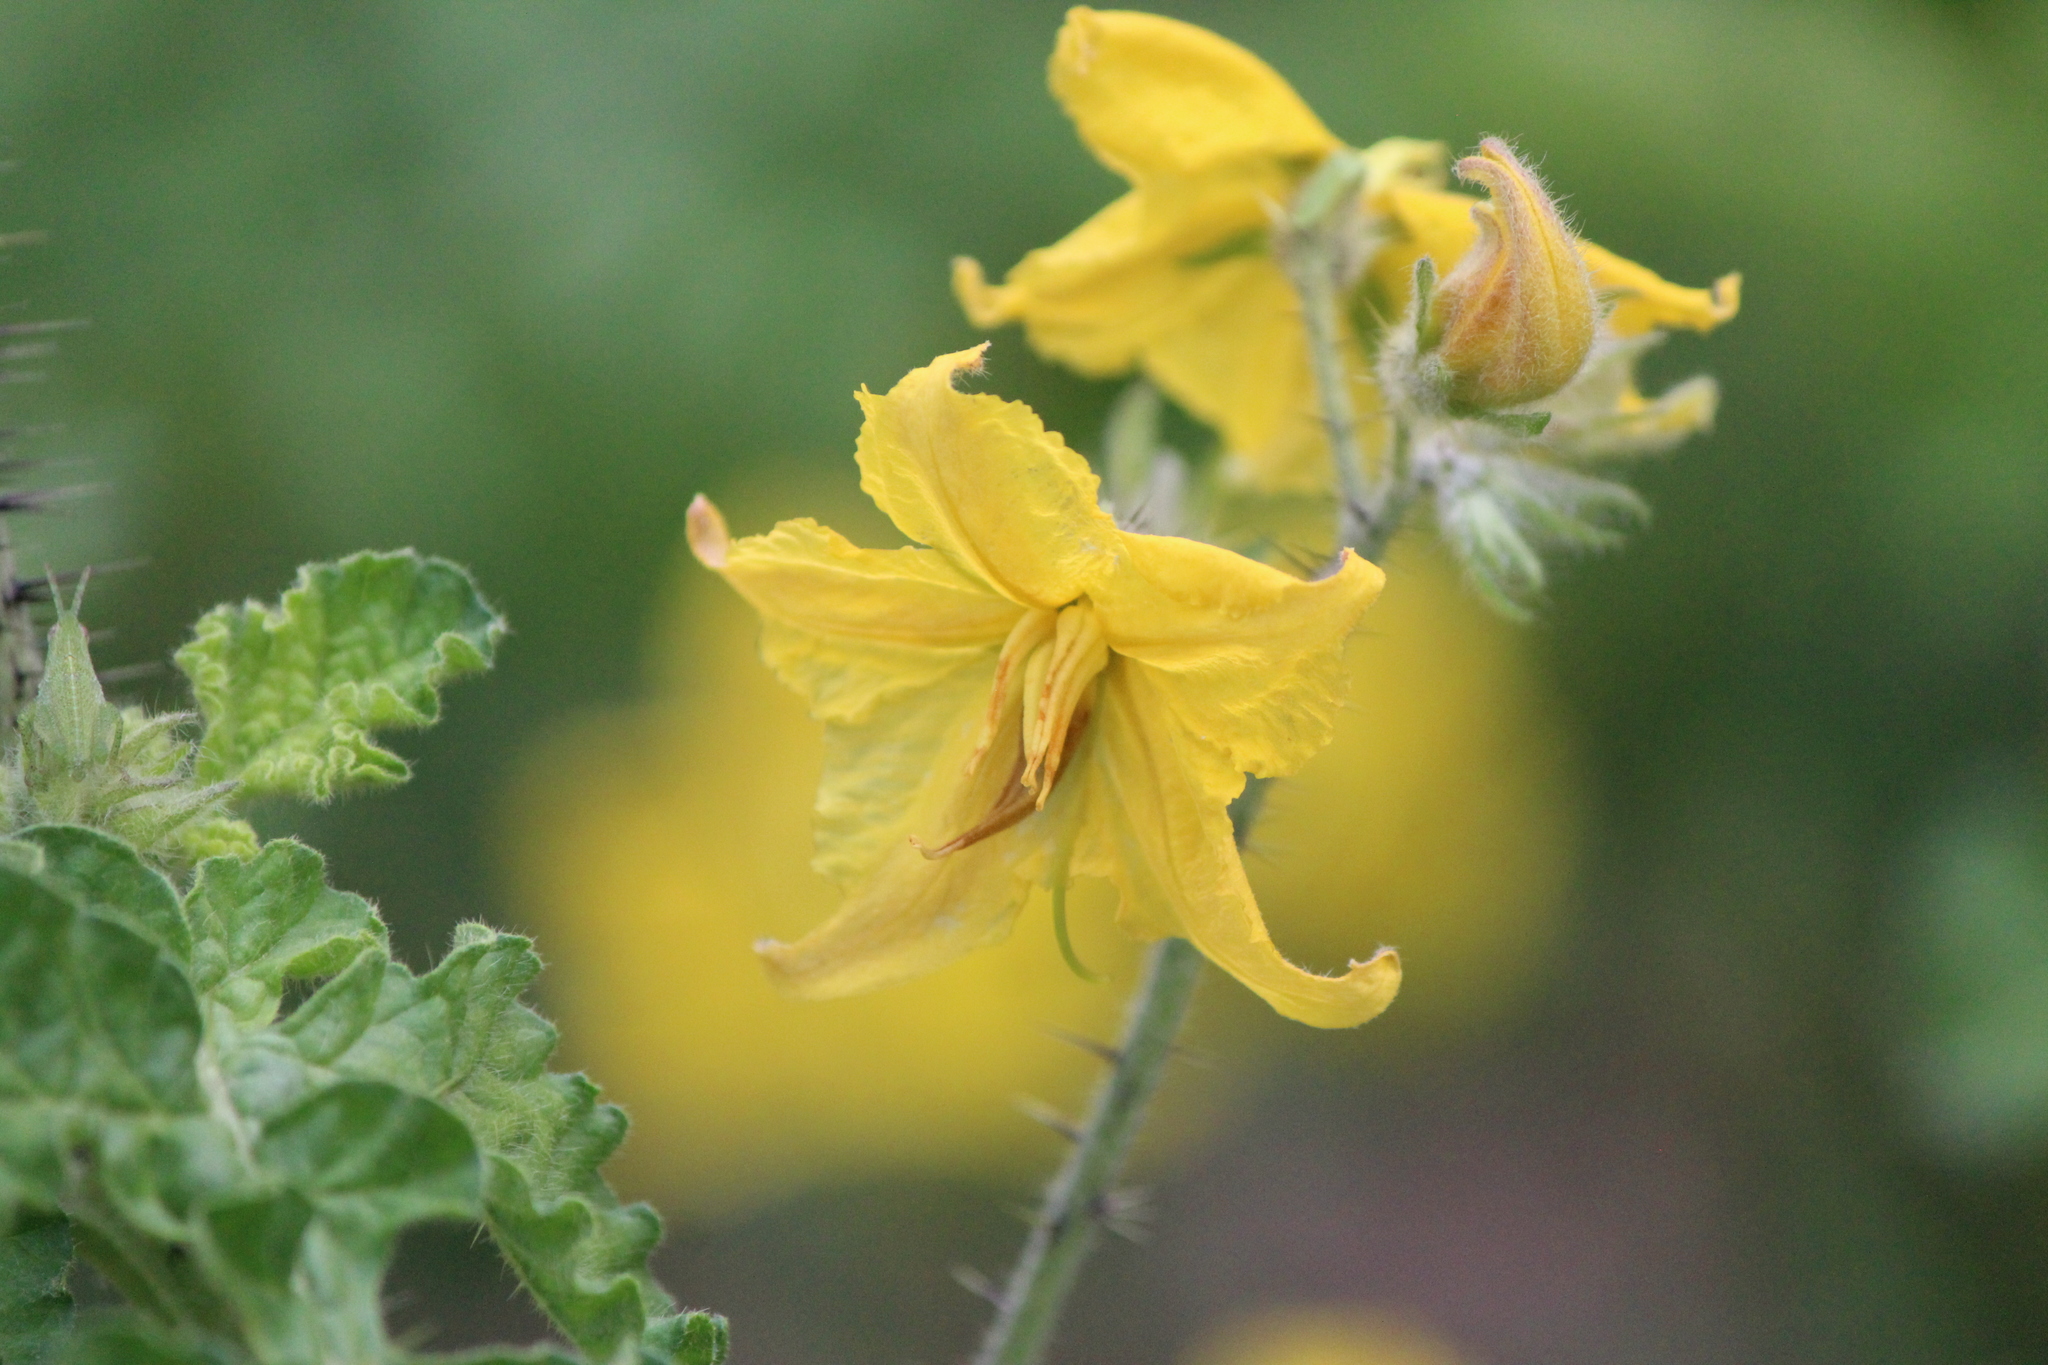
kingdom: Plantae
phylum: Tracheophyta
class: Magnoliopsida
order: Solanales
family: Solanaceae
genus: Solanum
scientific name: Solanum angustifolium
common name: Buffalobur nightshade
